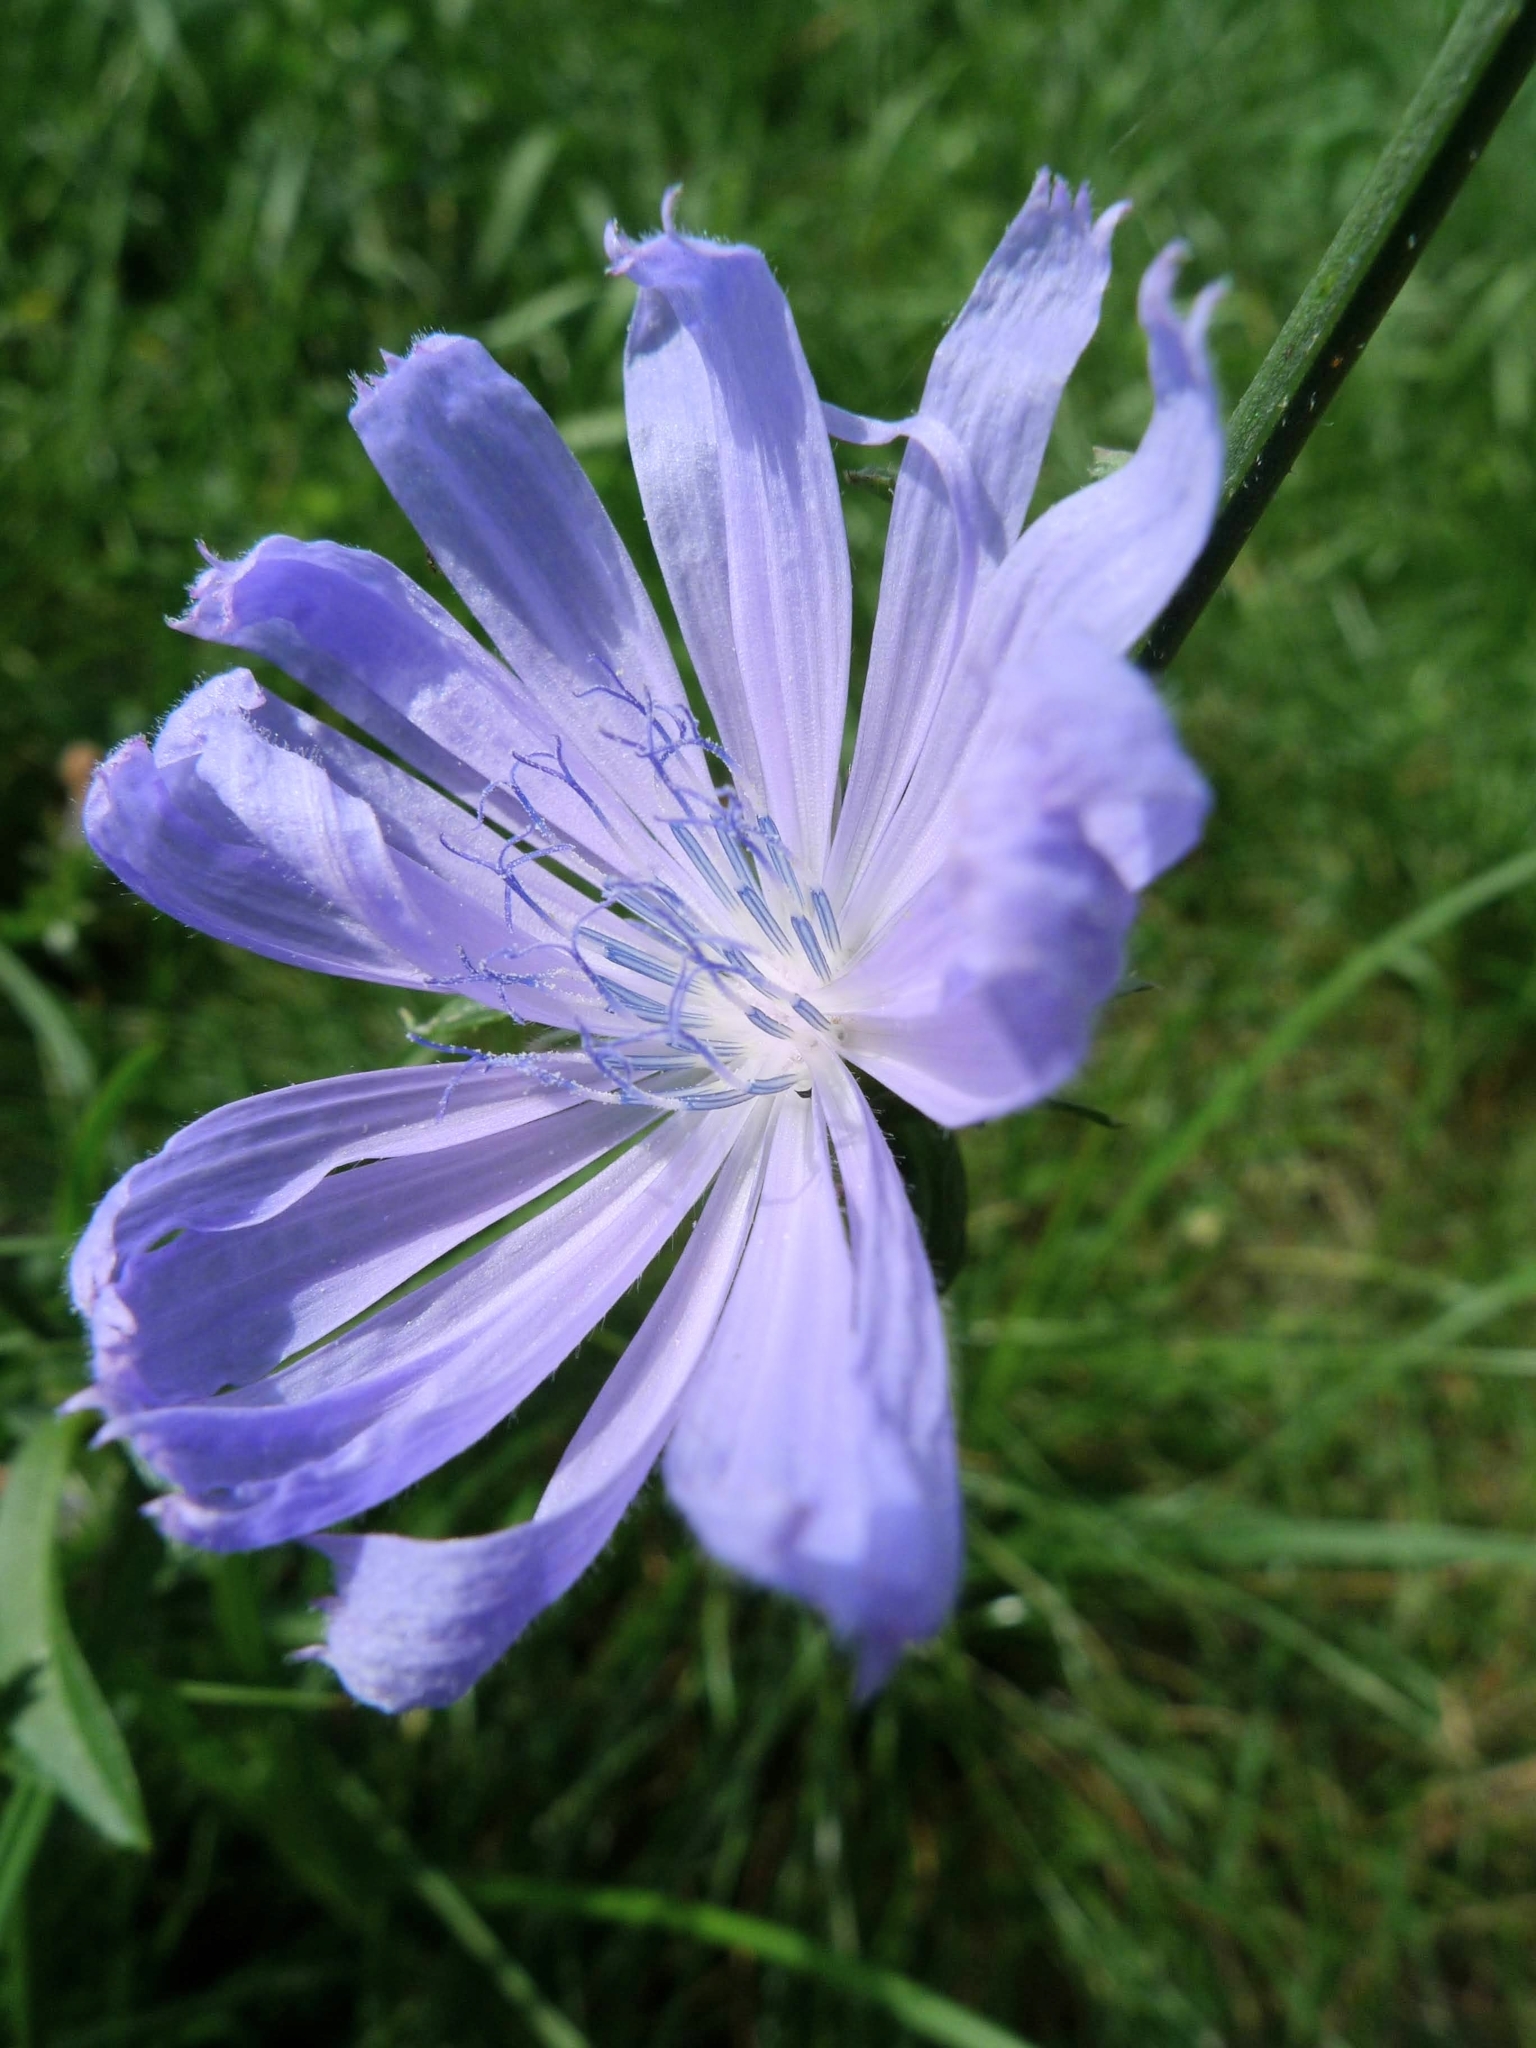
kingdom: Plantae
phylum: Tracheophyta
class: Magnoliopsida
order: Asterales
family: Asteraceae
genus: Cichorium
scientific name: Cichorium intybus
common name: Chicory
